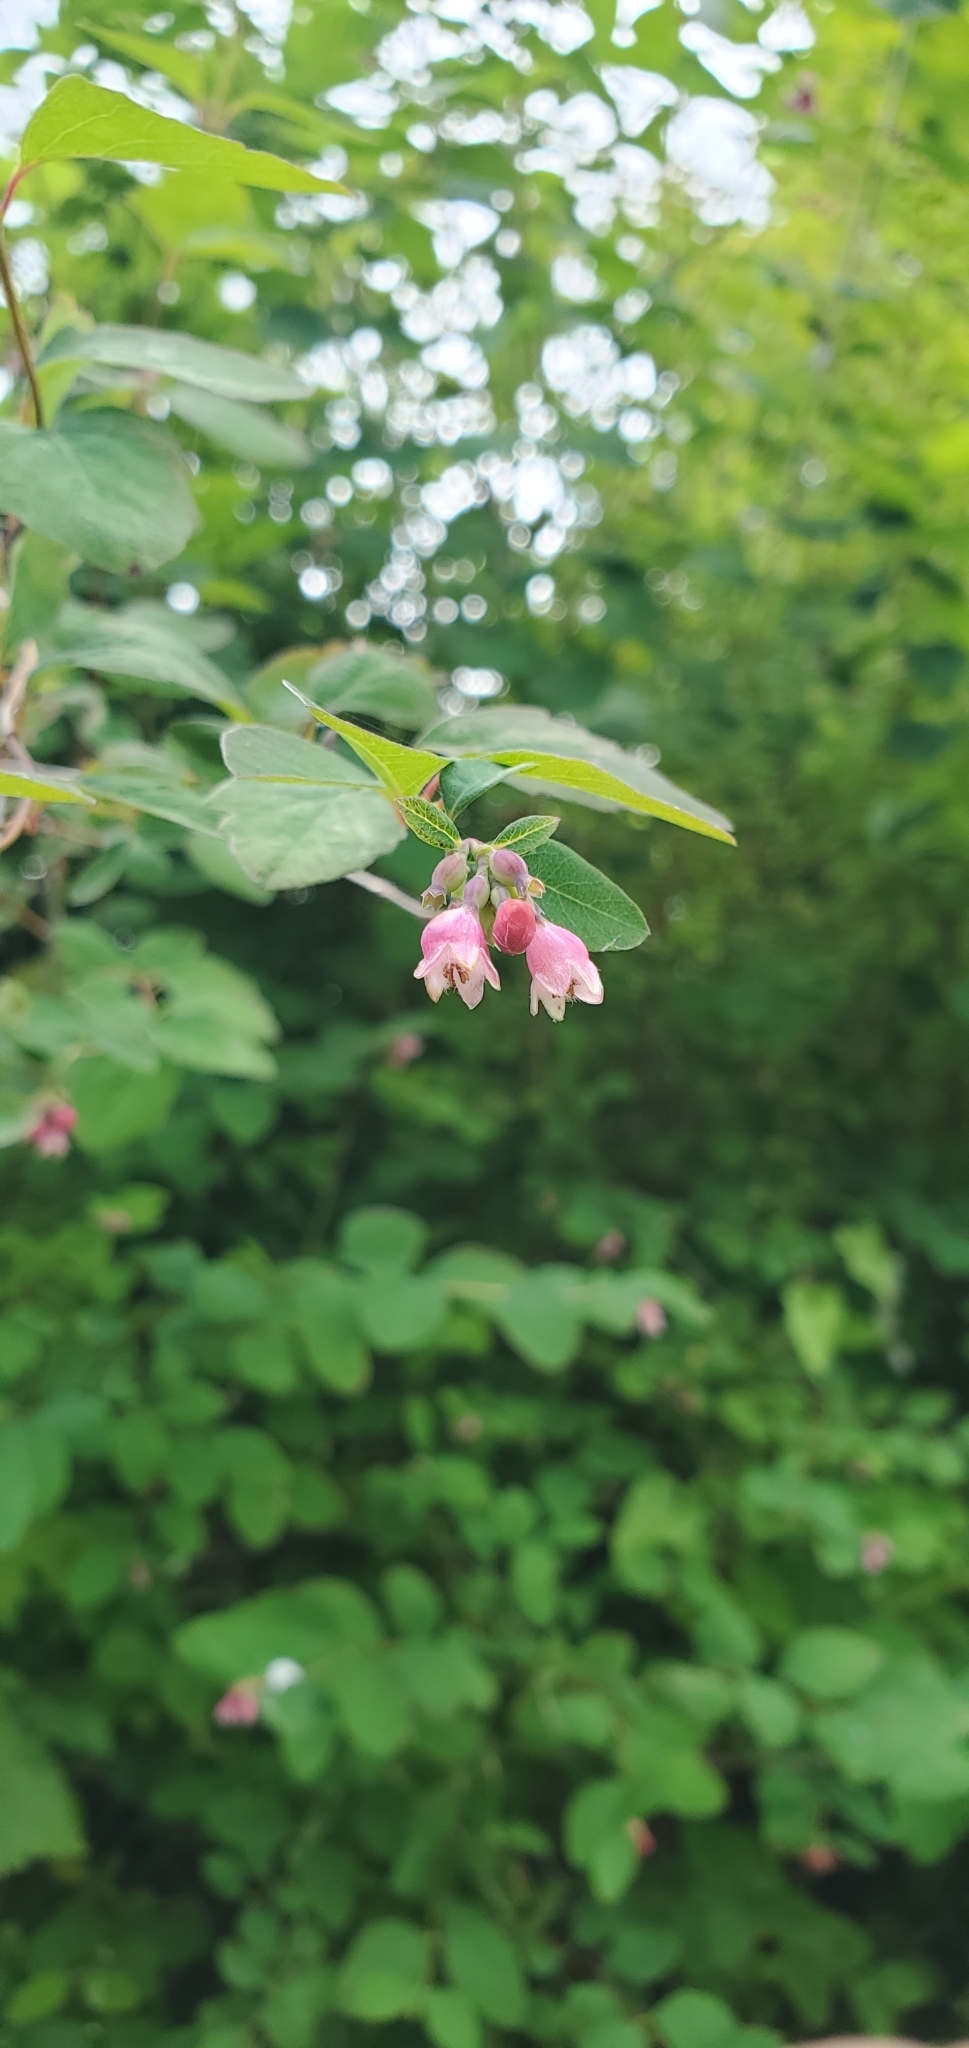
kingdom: Plantae
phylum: Tracheophyta
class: Magnoliopsida
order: Dipsacales
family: Caprifoliaceae
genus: Symphoricarpos
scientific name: Symphoricarpos albus
